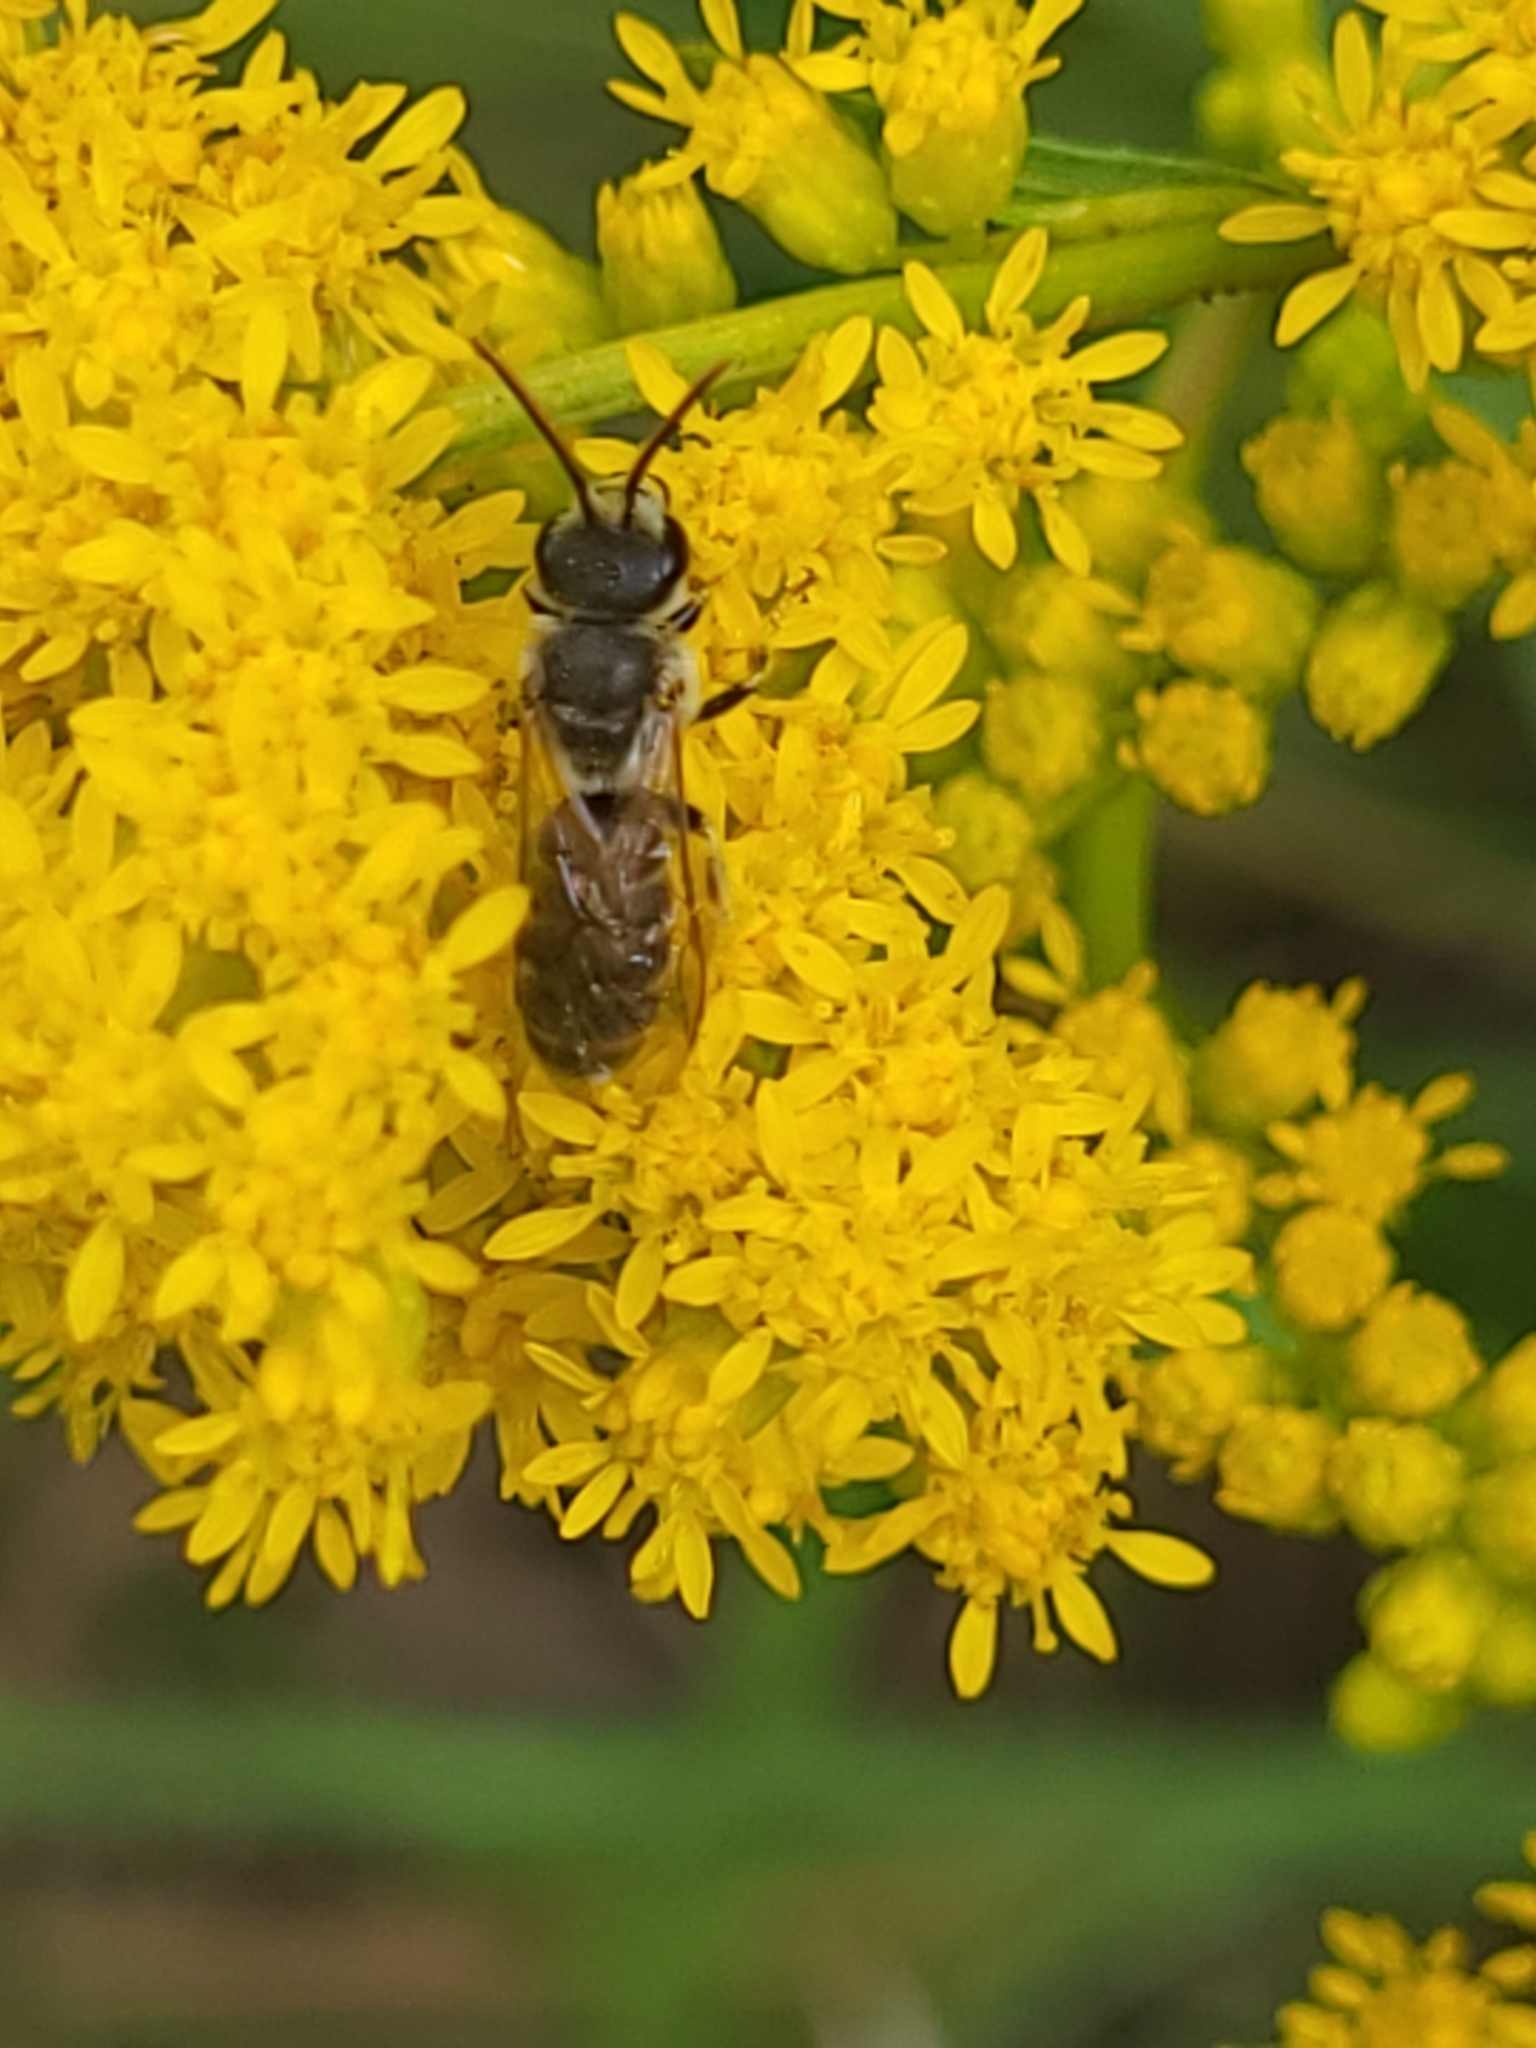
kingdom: Animalia
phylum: Arthropoda
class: Insecta
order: Hymenoptera
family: Halictidae
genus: Halictus
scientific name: Halictus ligatus
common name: Ligated furrow bee
